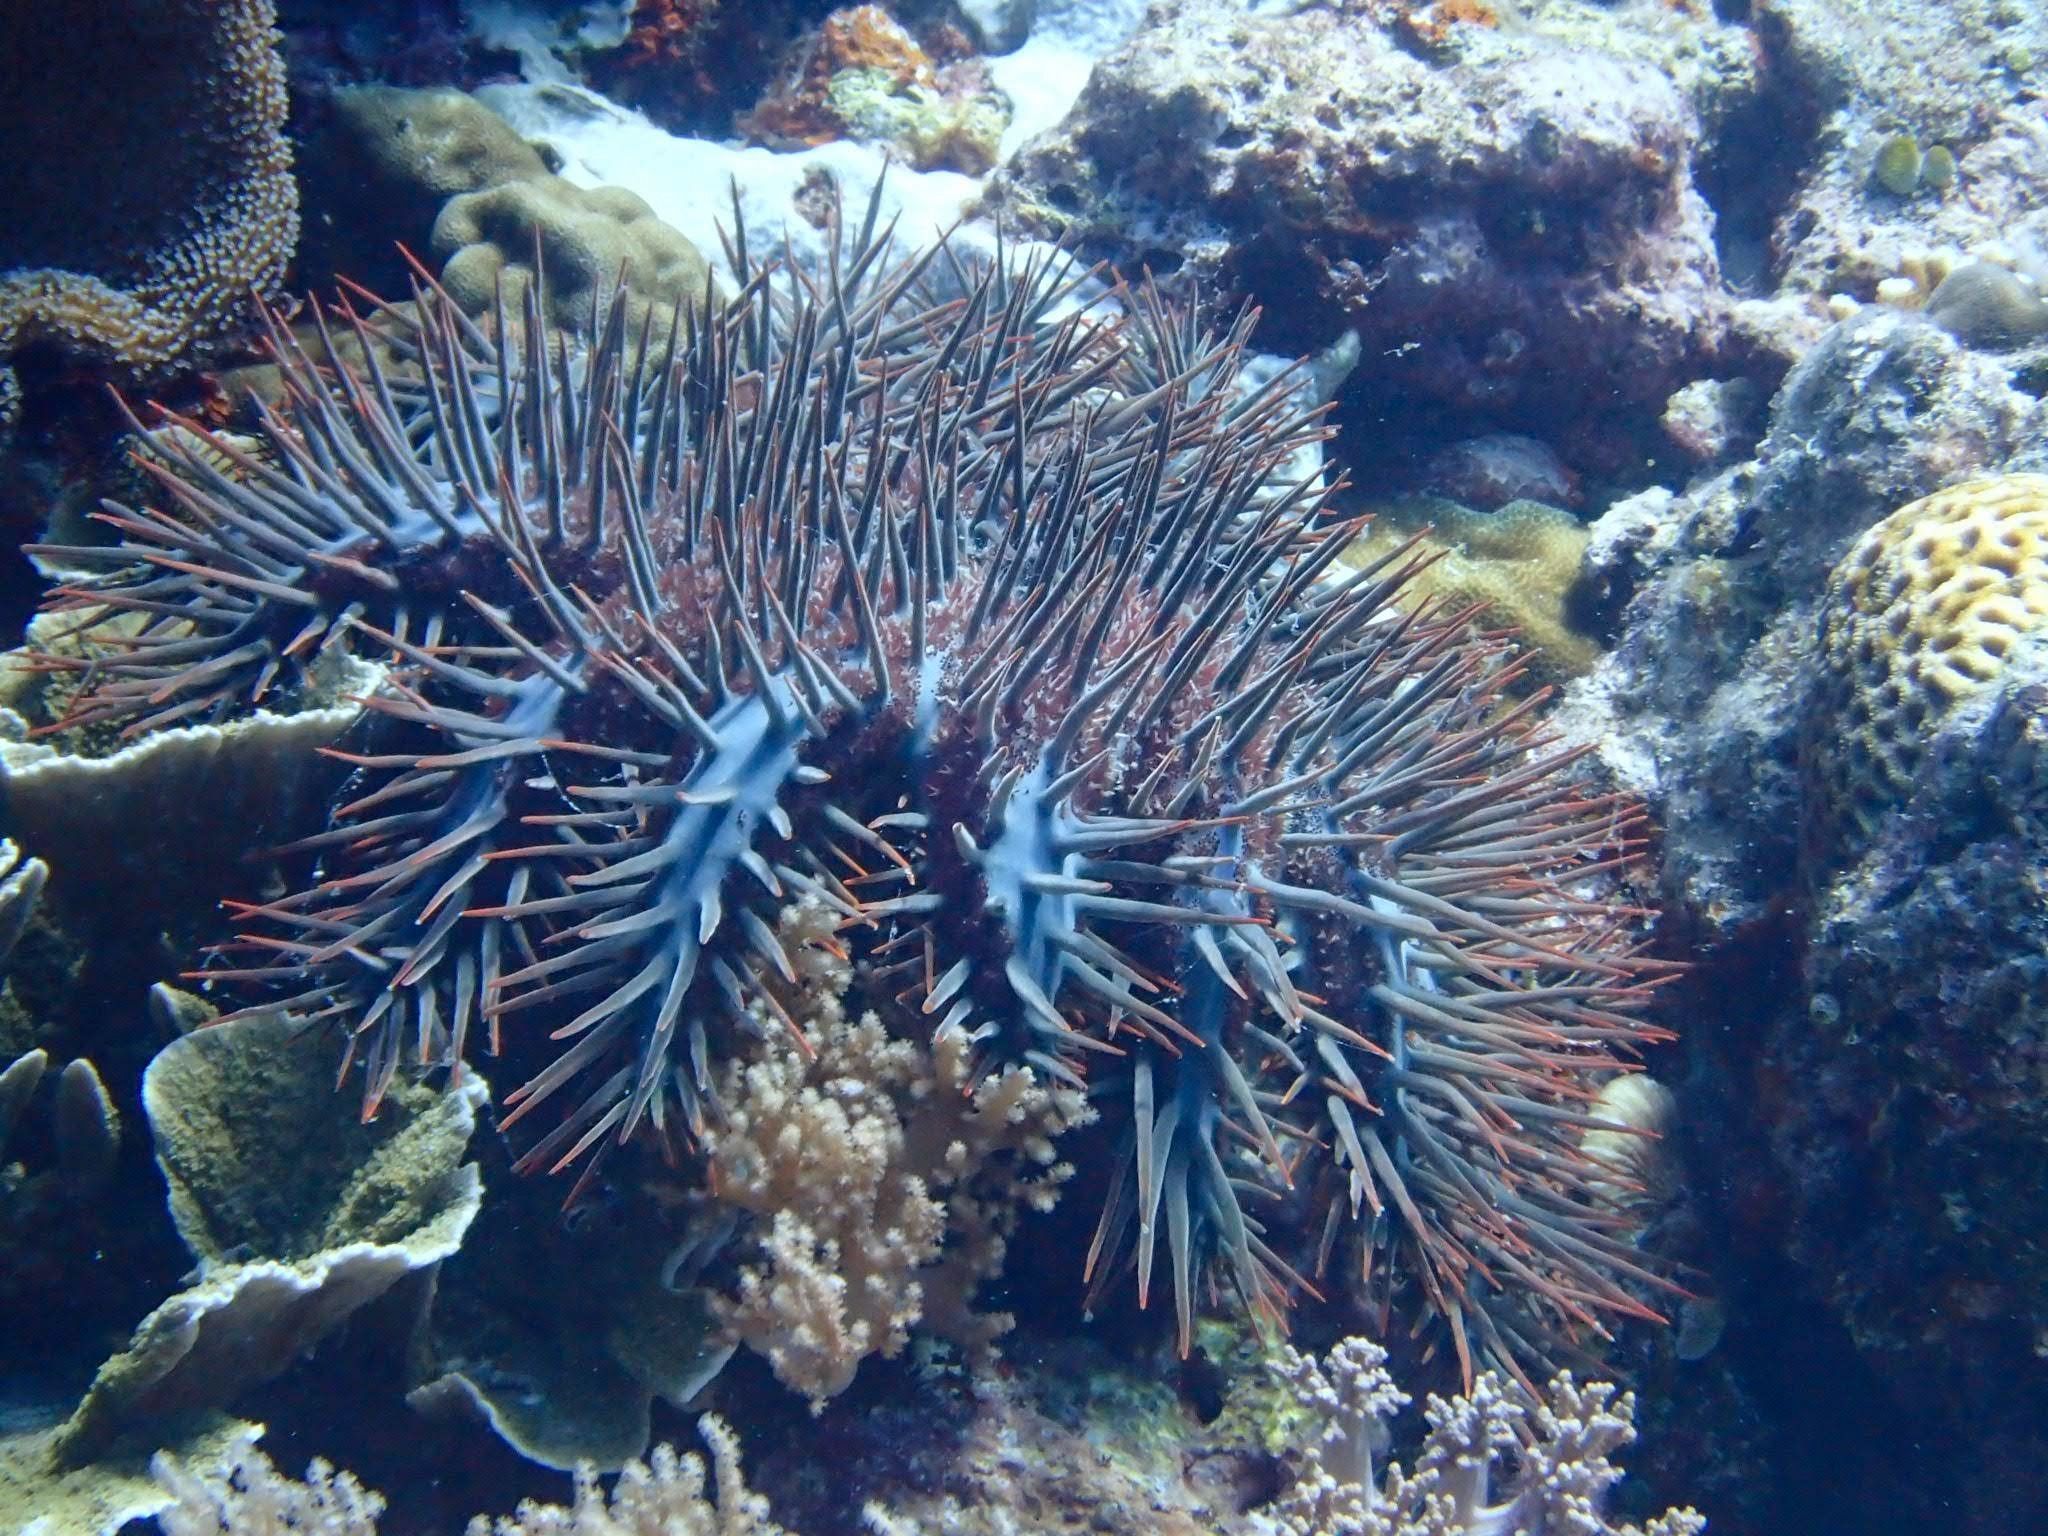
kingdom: Animalia
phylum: Echinodermata
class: Asteroidea
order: Valvatida
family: Acanthasteridae
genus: Acanthaster
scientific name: Acanthaster planci
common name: Crown-of-thorns
